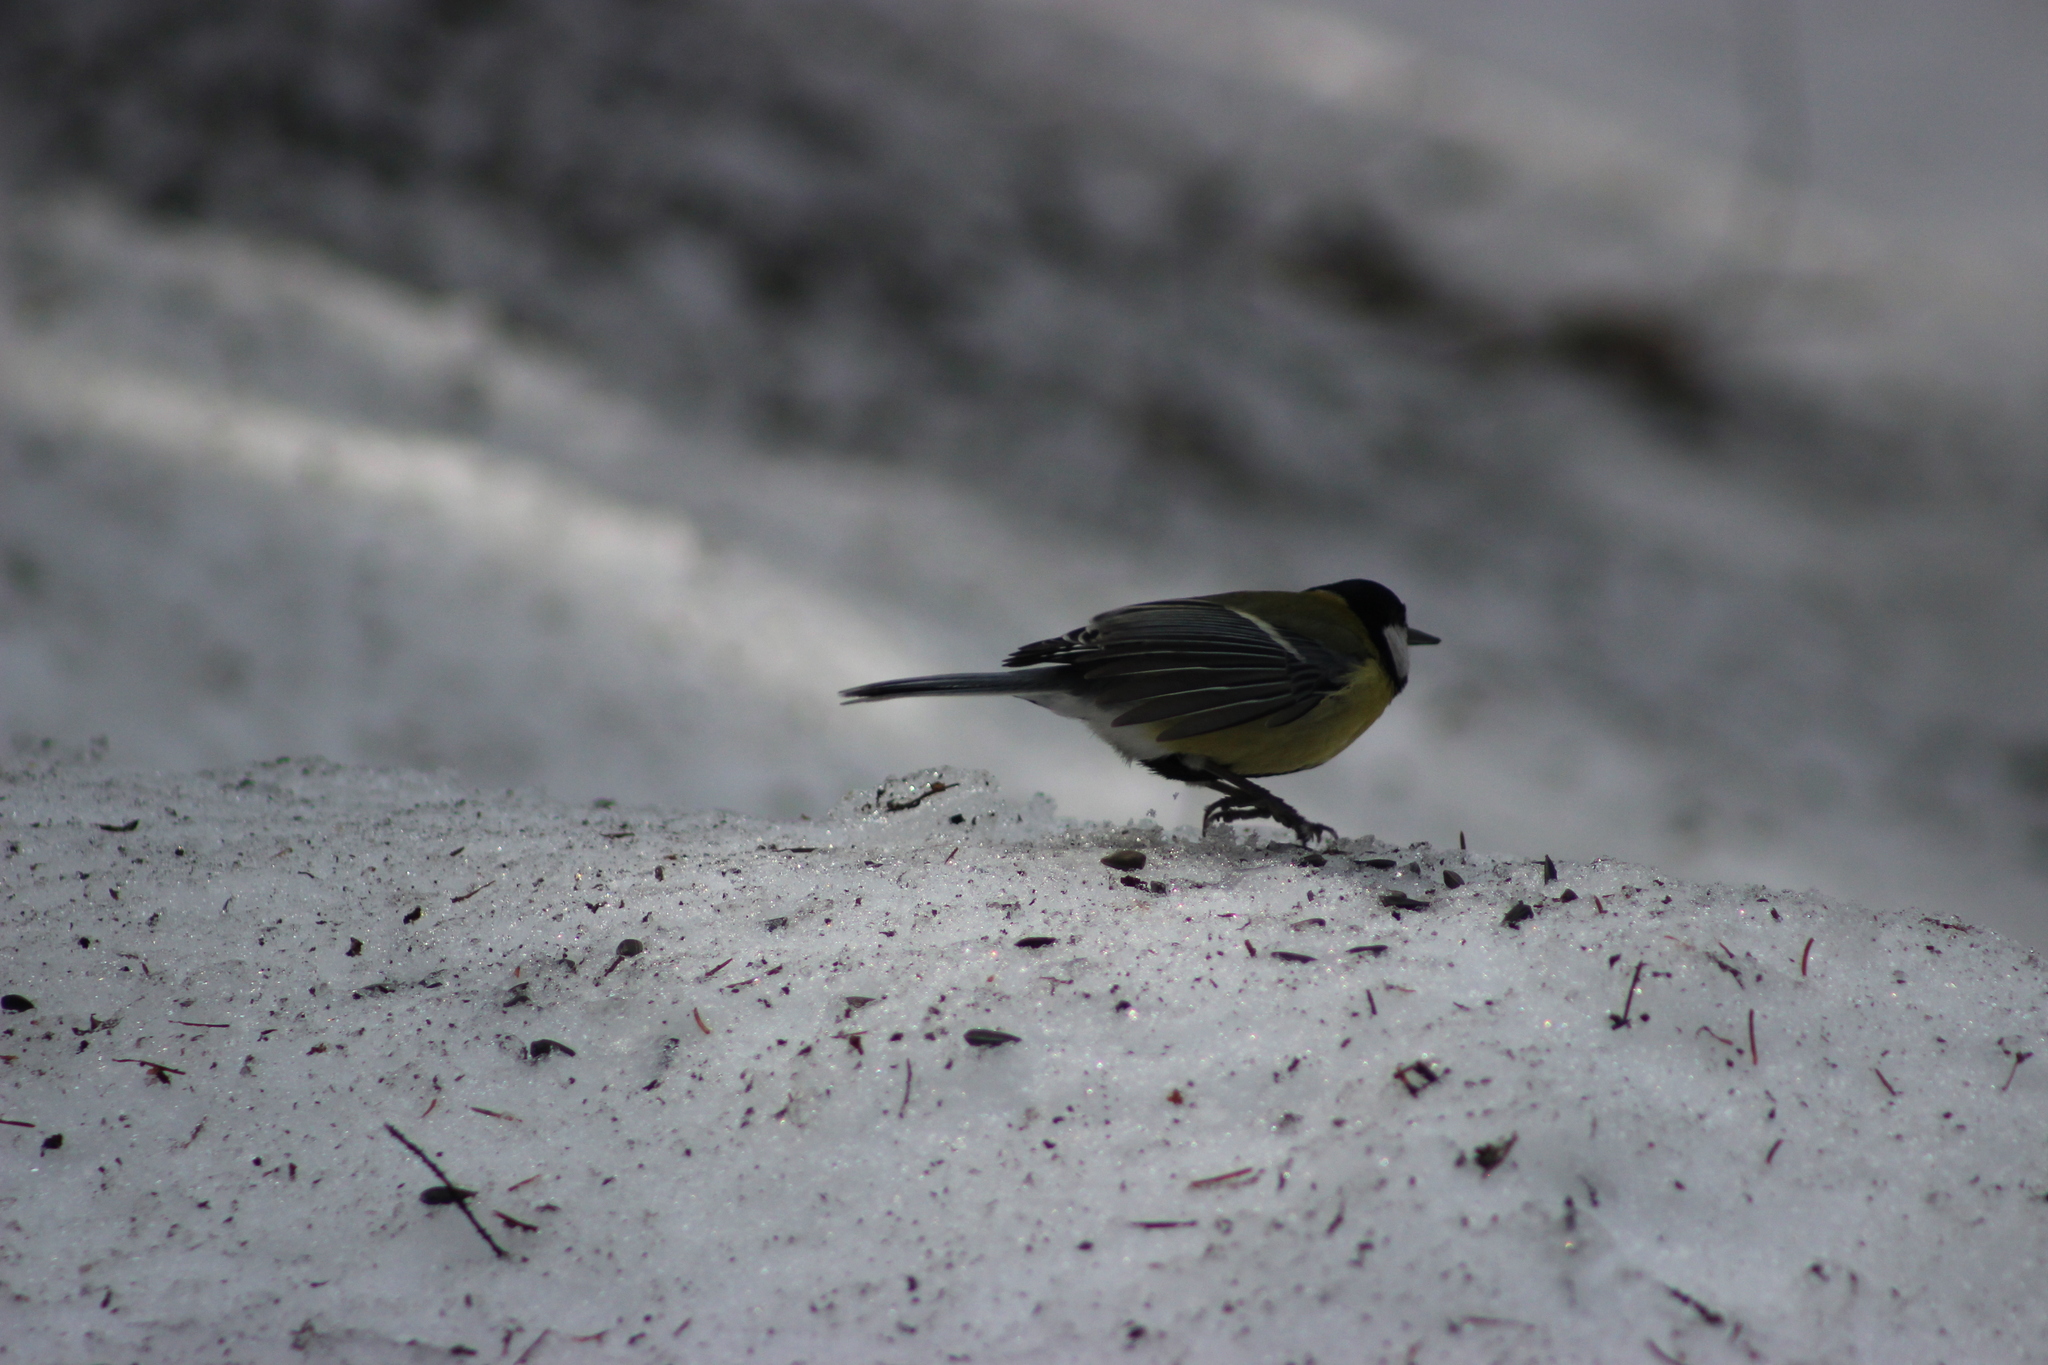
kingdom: Animalia
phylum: Chordata
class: Aves
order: Passeriformes
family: Paridae
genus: Parus
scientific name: Parus major
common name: Great tit
